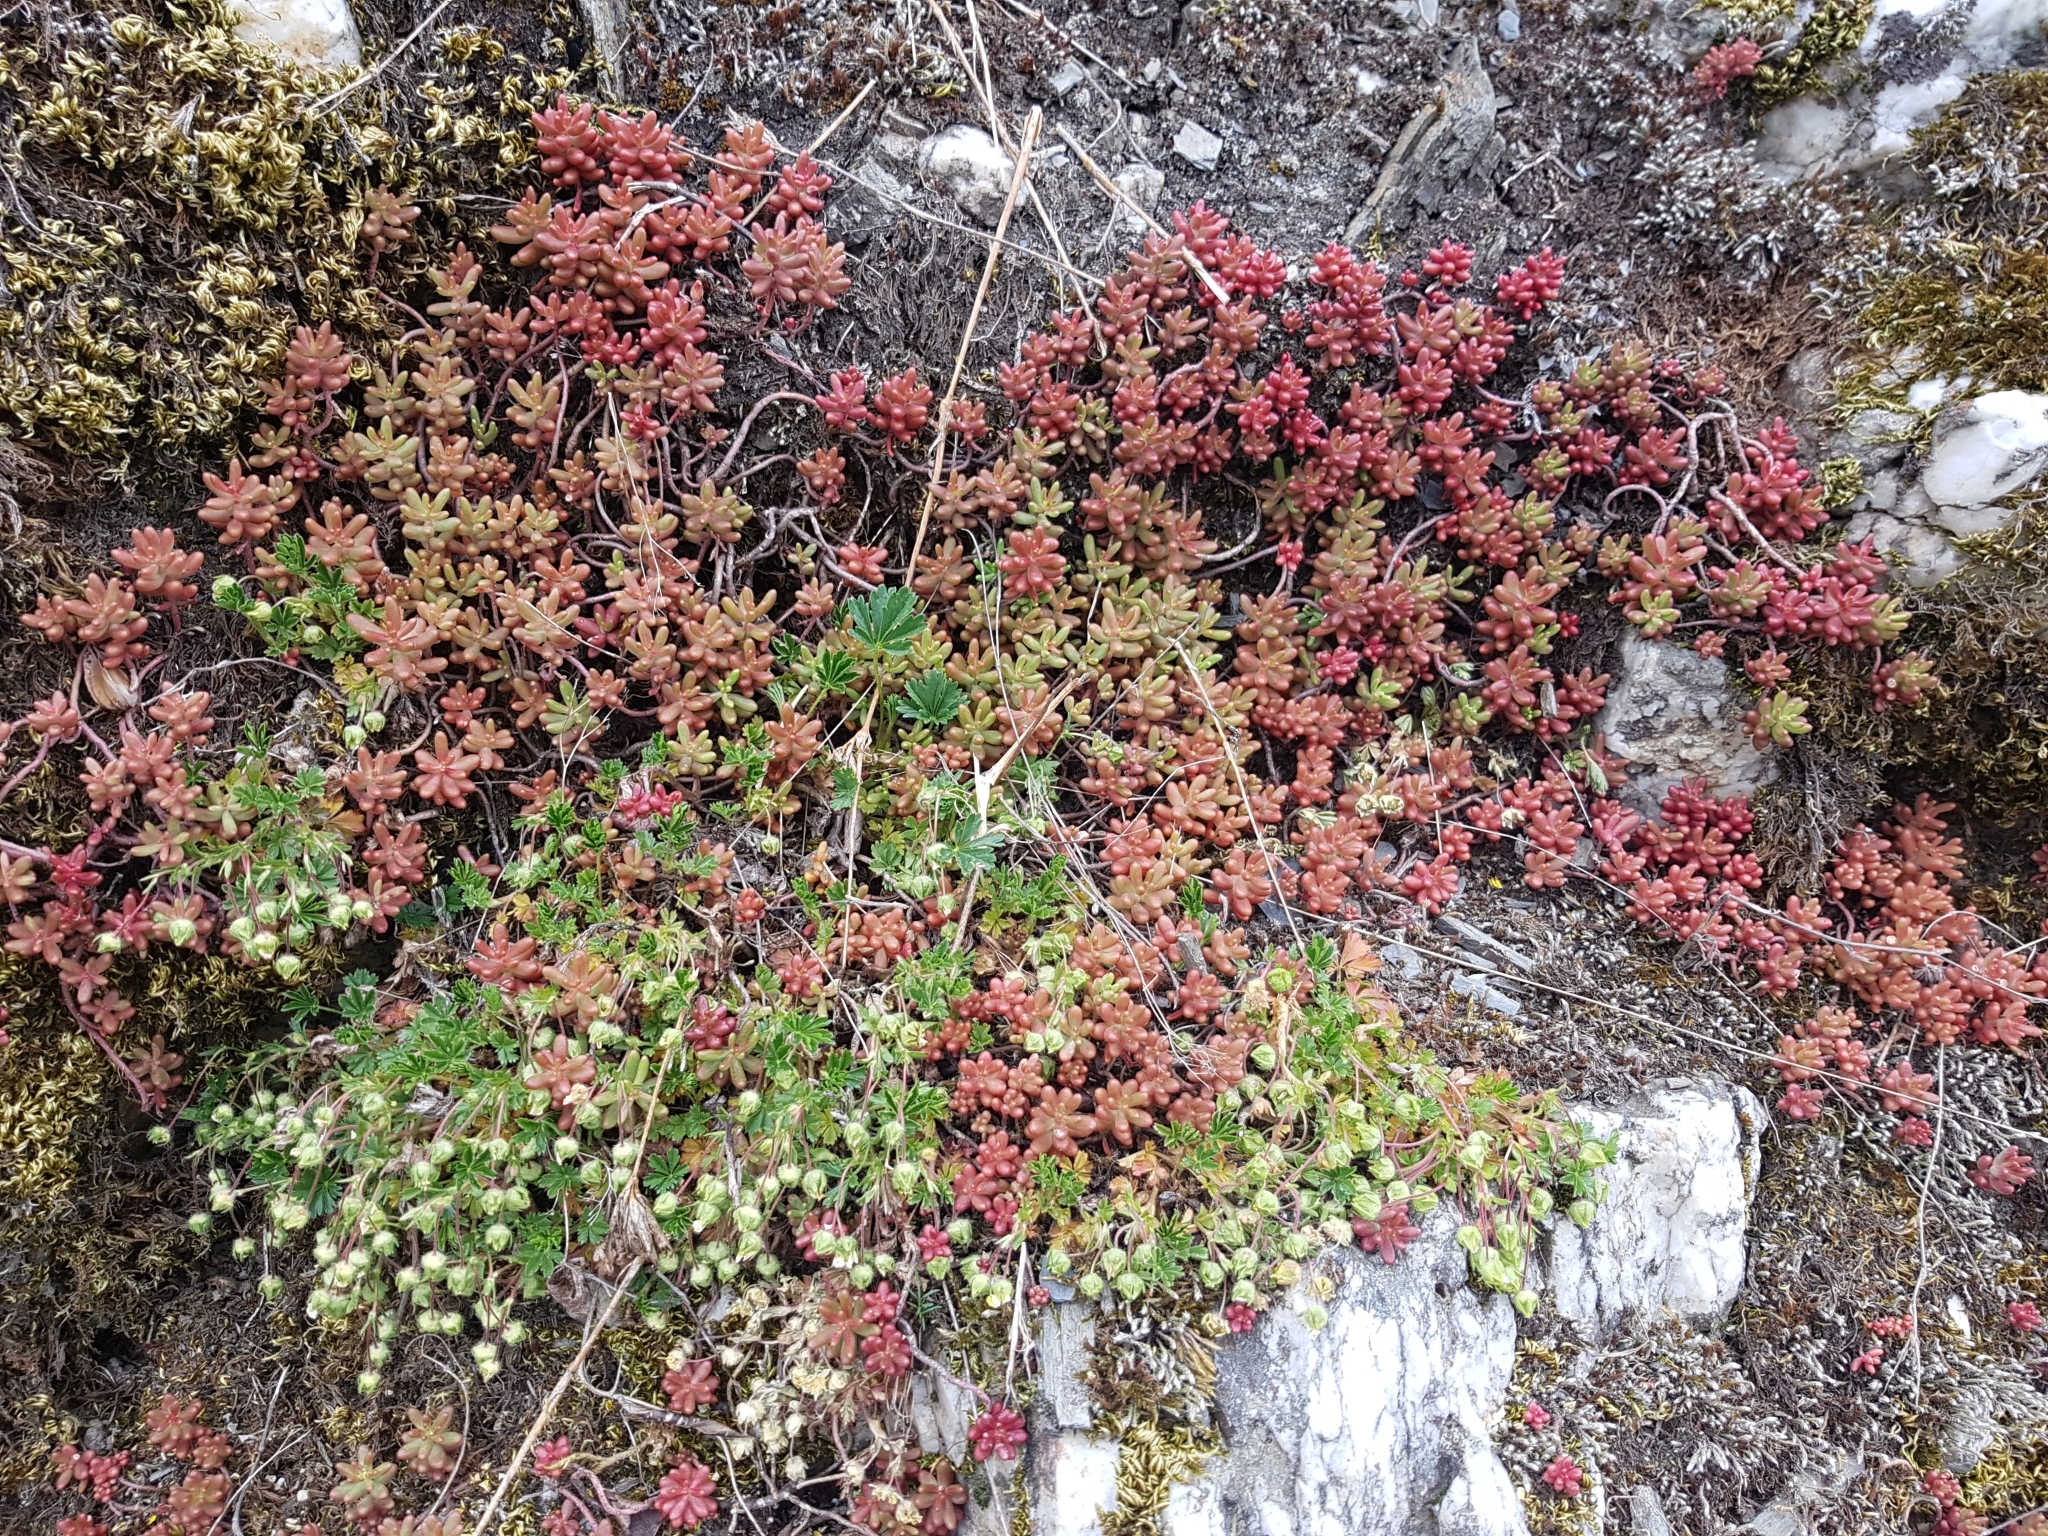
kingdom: Plantae
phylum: Tracheophyta
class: Magnoliopsida
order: Saxifragales
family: Crassulaceae
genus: Sedum
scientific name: Sedum album
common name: White stonecrop
